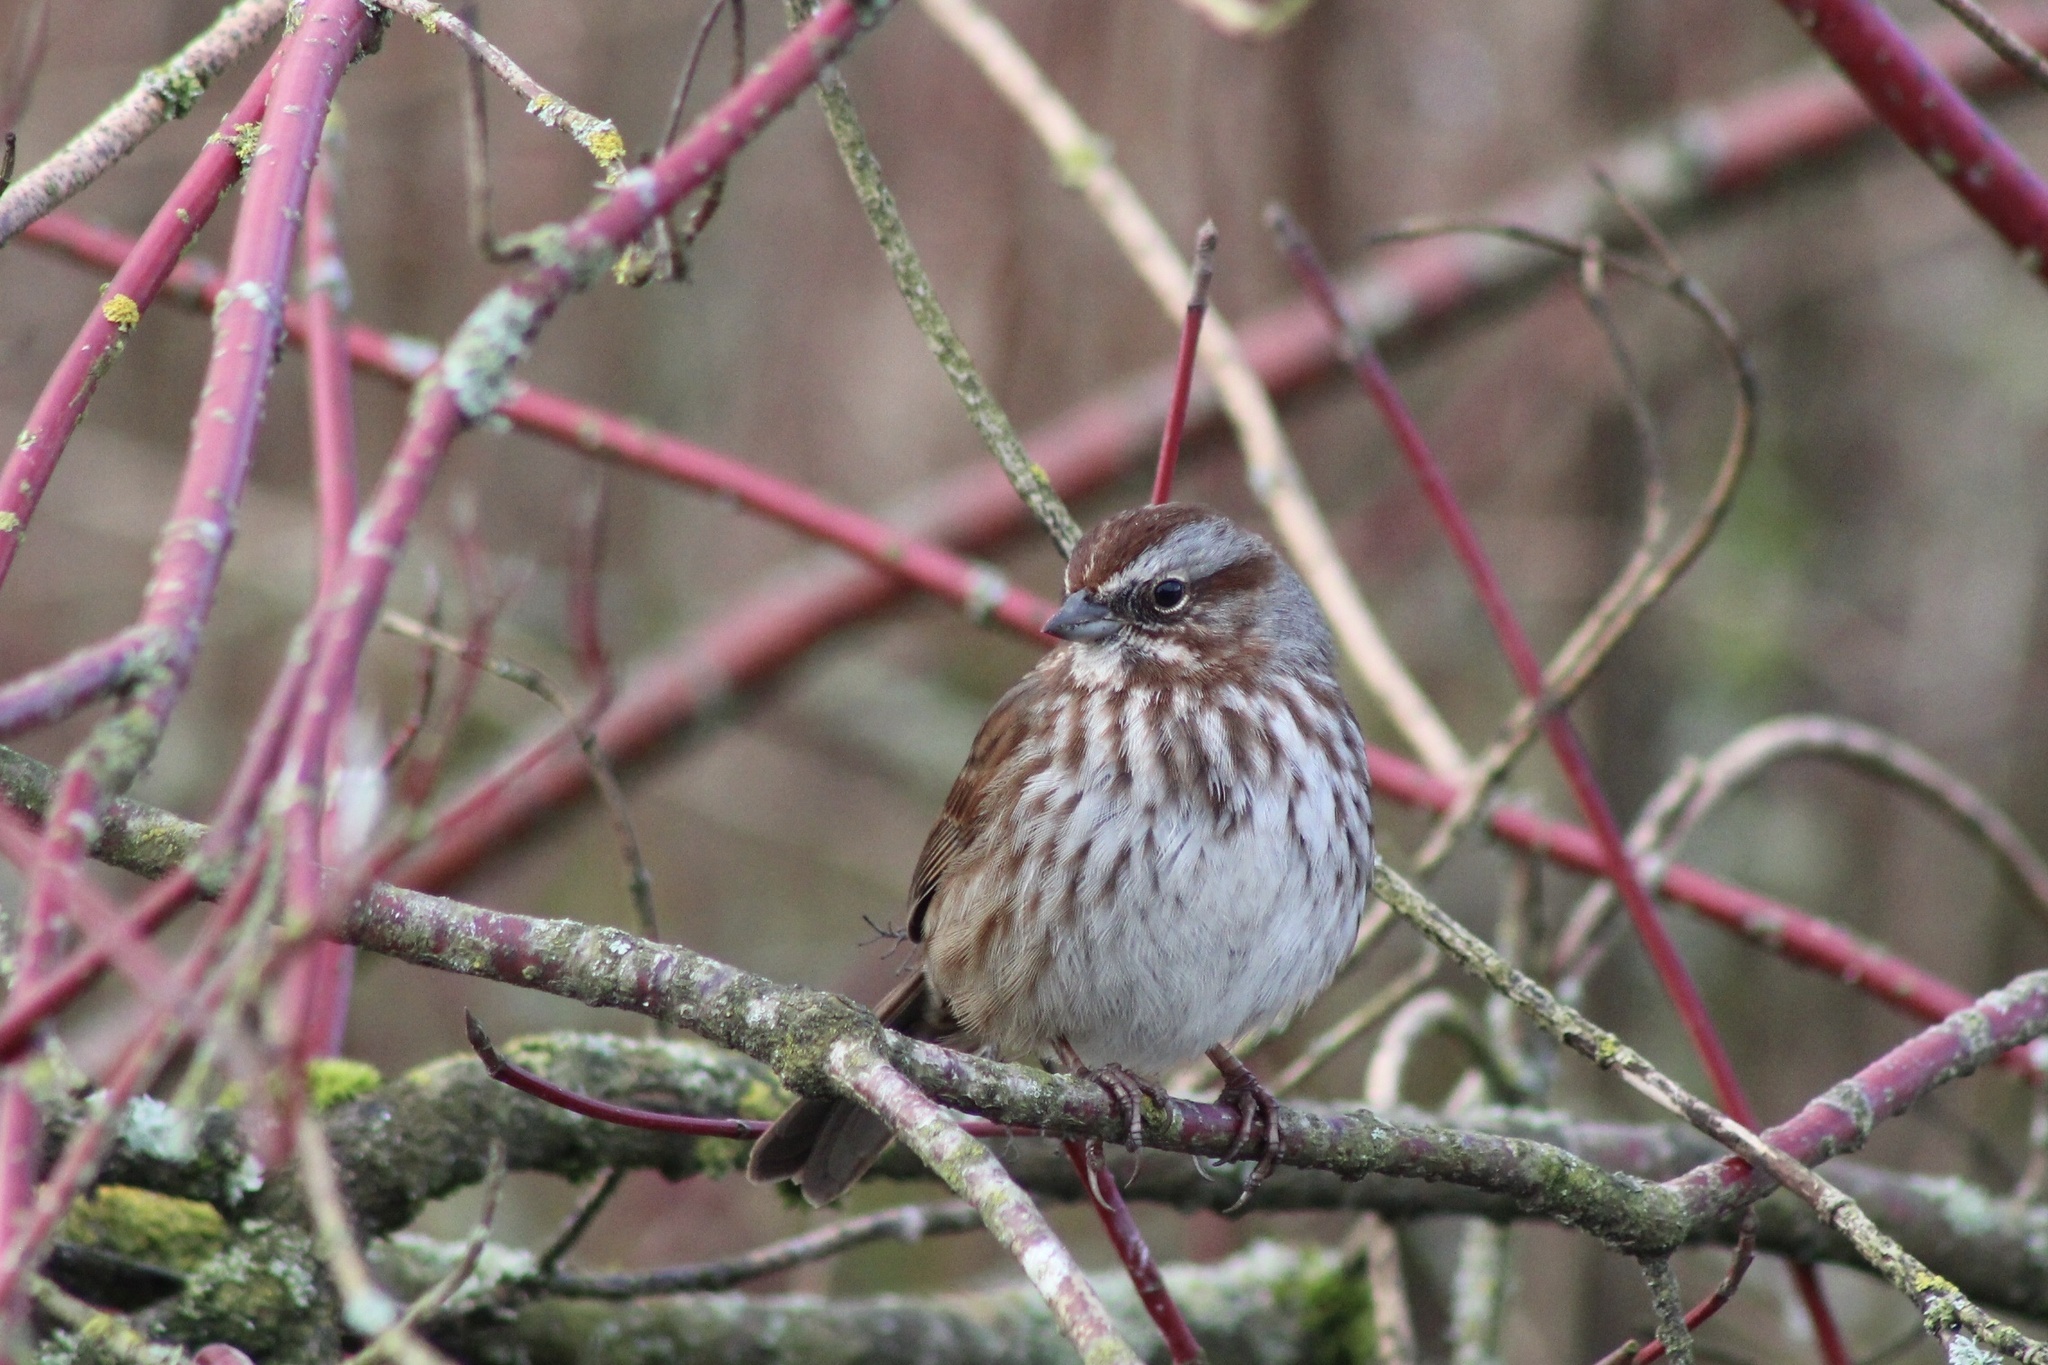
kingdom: Animalia
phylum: Chordata
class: Aves
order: Passeriformes
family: Passerellidae
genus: Melospiza
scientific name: Melospiza melodia
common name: Song sparrow
